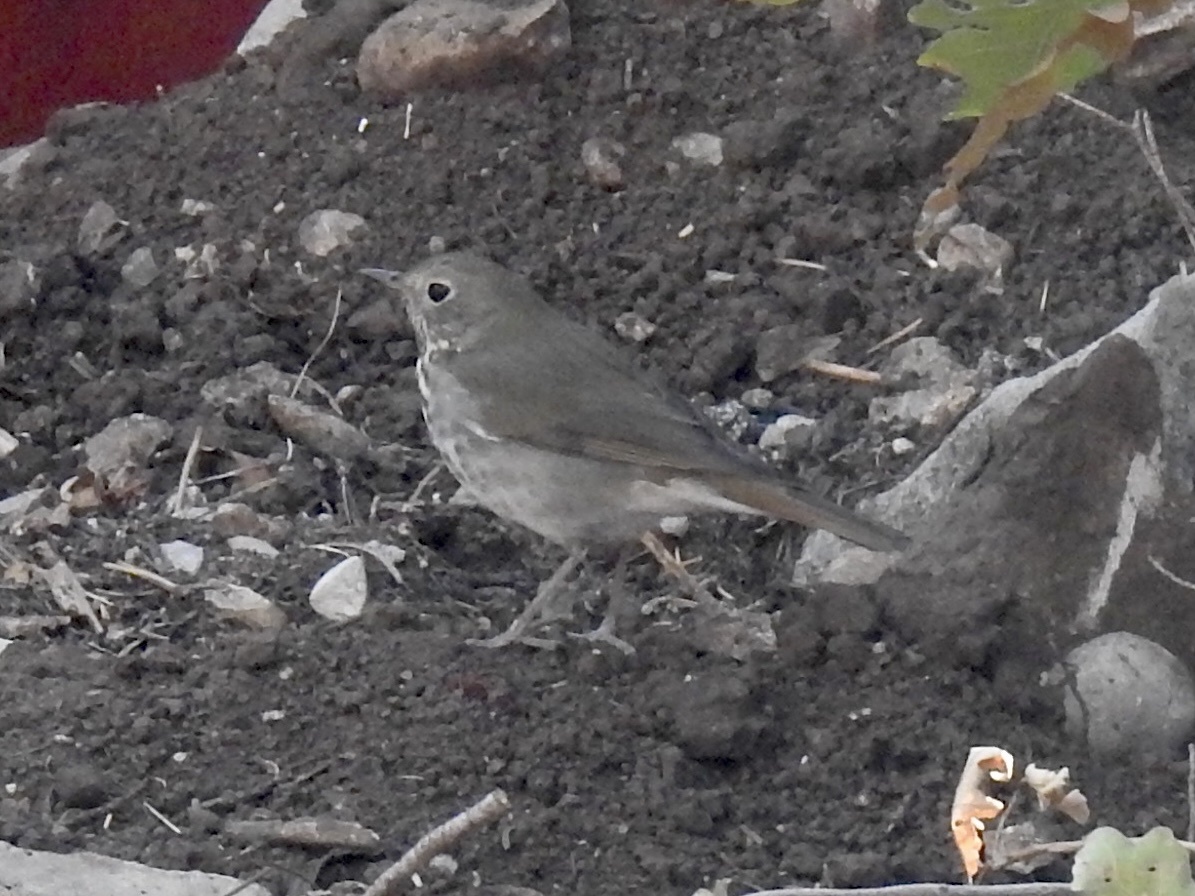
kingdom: Animalia
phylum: Chordata
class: Aves
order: Passeriformes
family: Turdidae
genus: Catharus
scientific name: Catharus guttatus
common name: Hermit thrush
